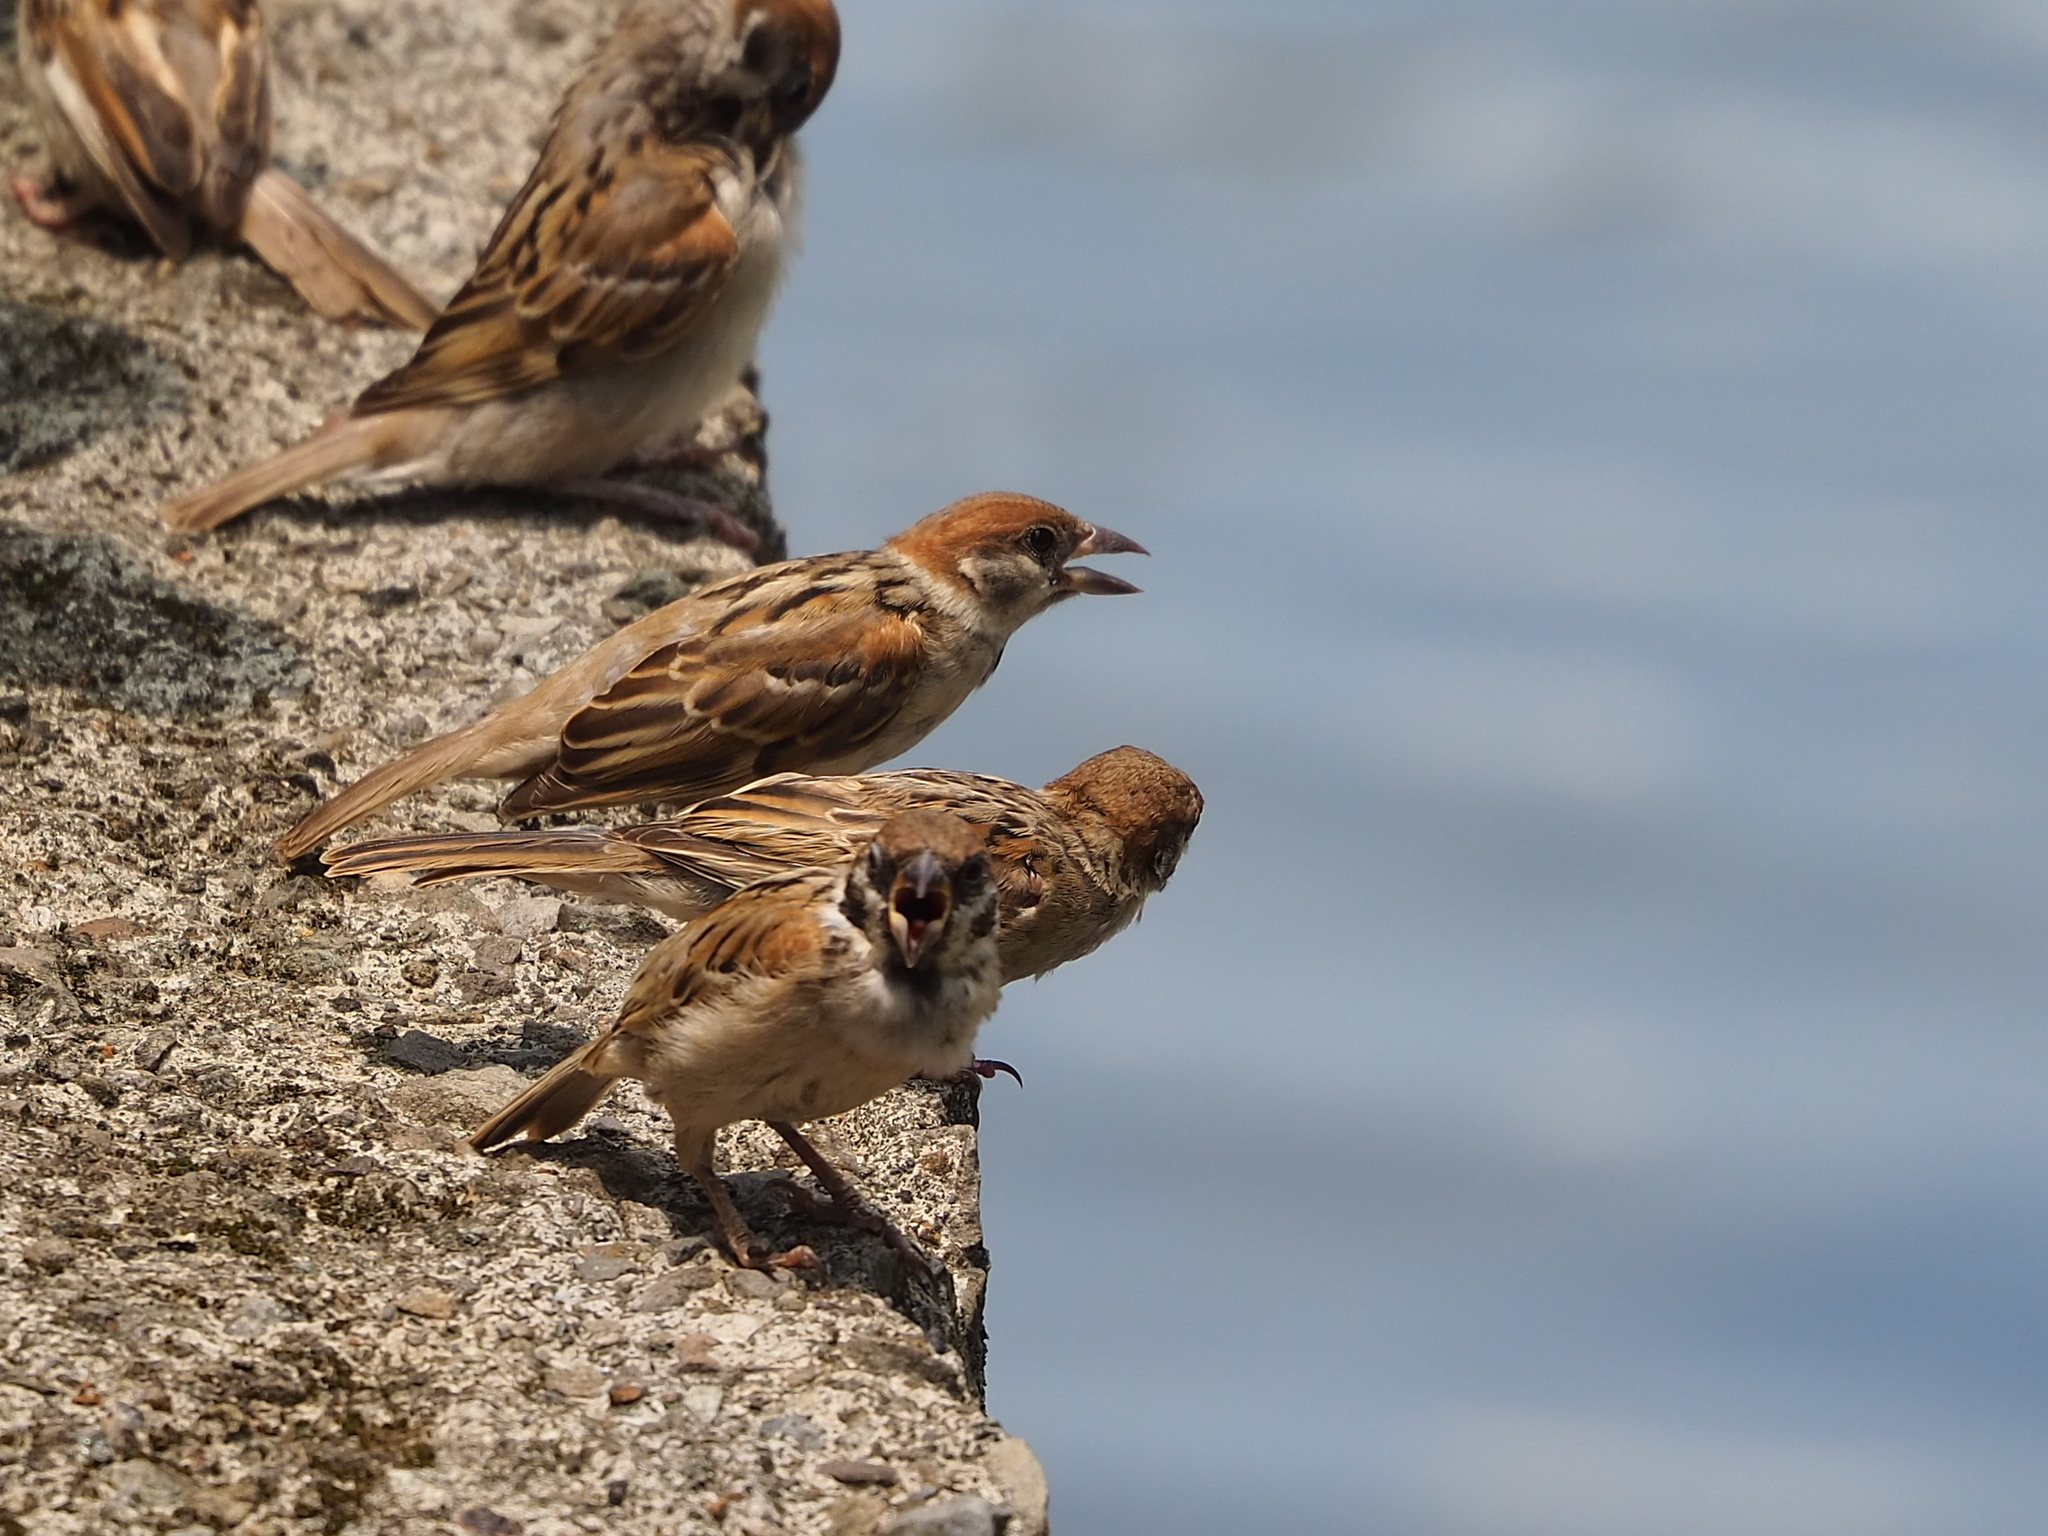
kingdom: Animalia
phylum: Chordata
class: Aves
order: Passeriformes
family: Passeridae
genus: Passer
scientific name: Passer montanus
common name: Eurasian tree sparrow
